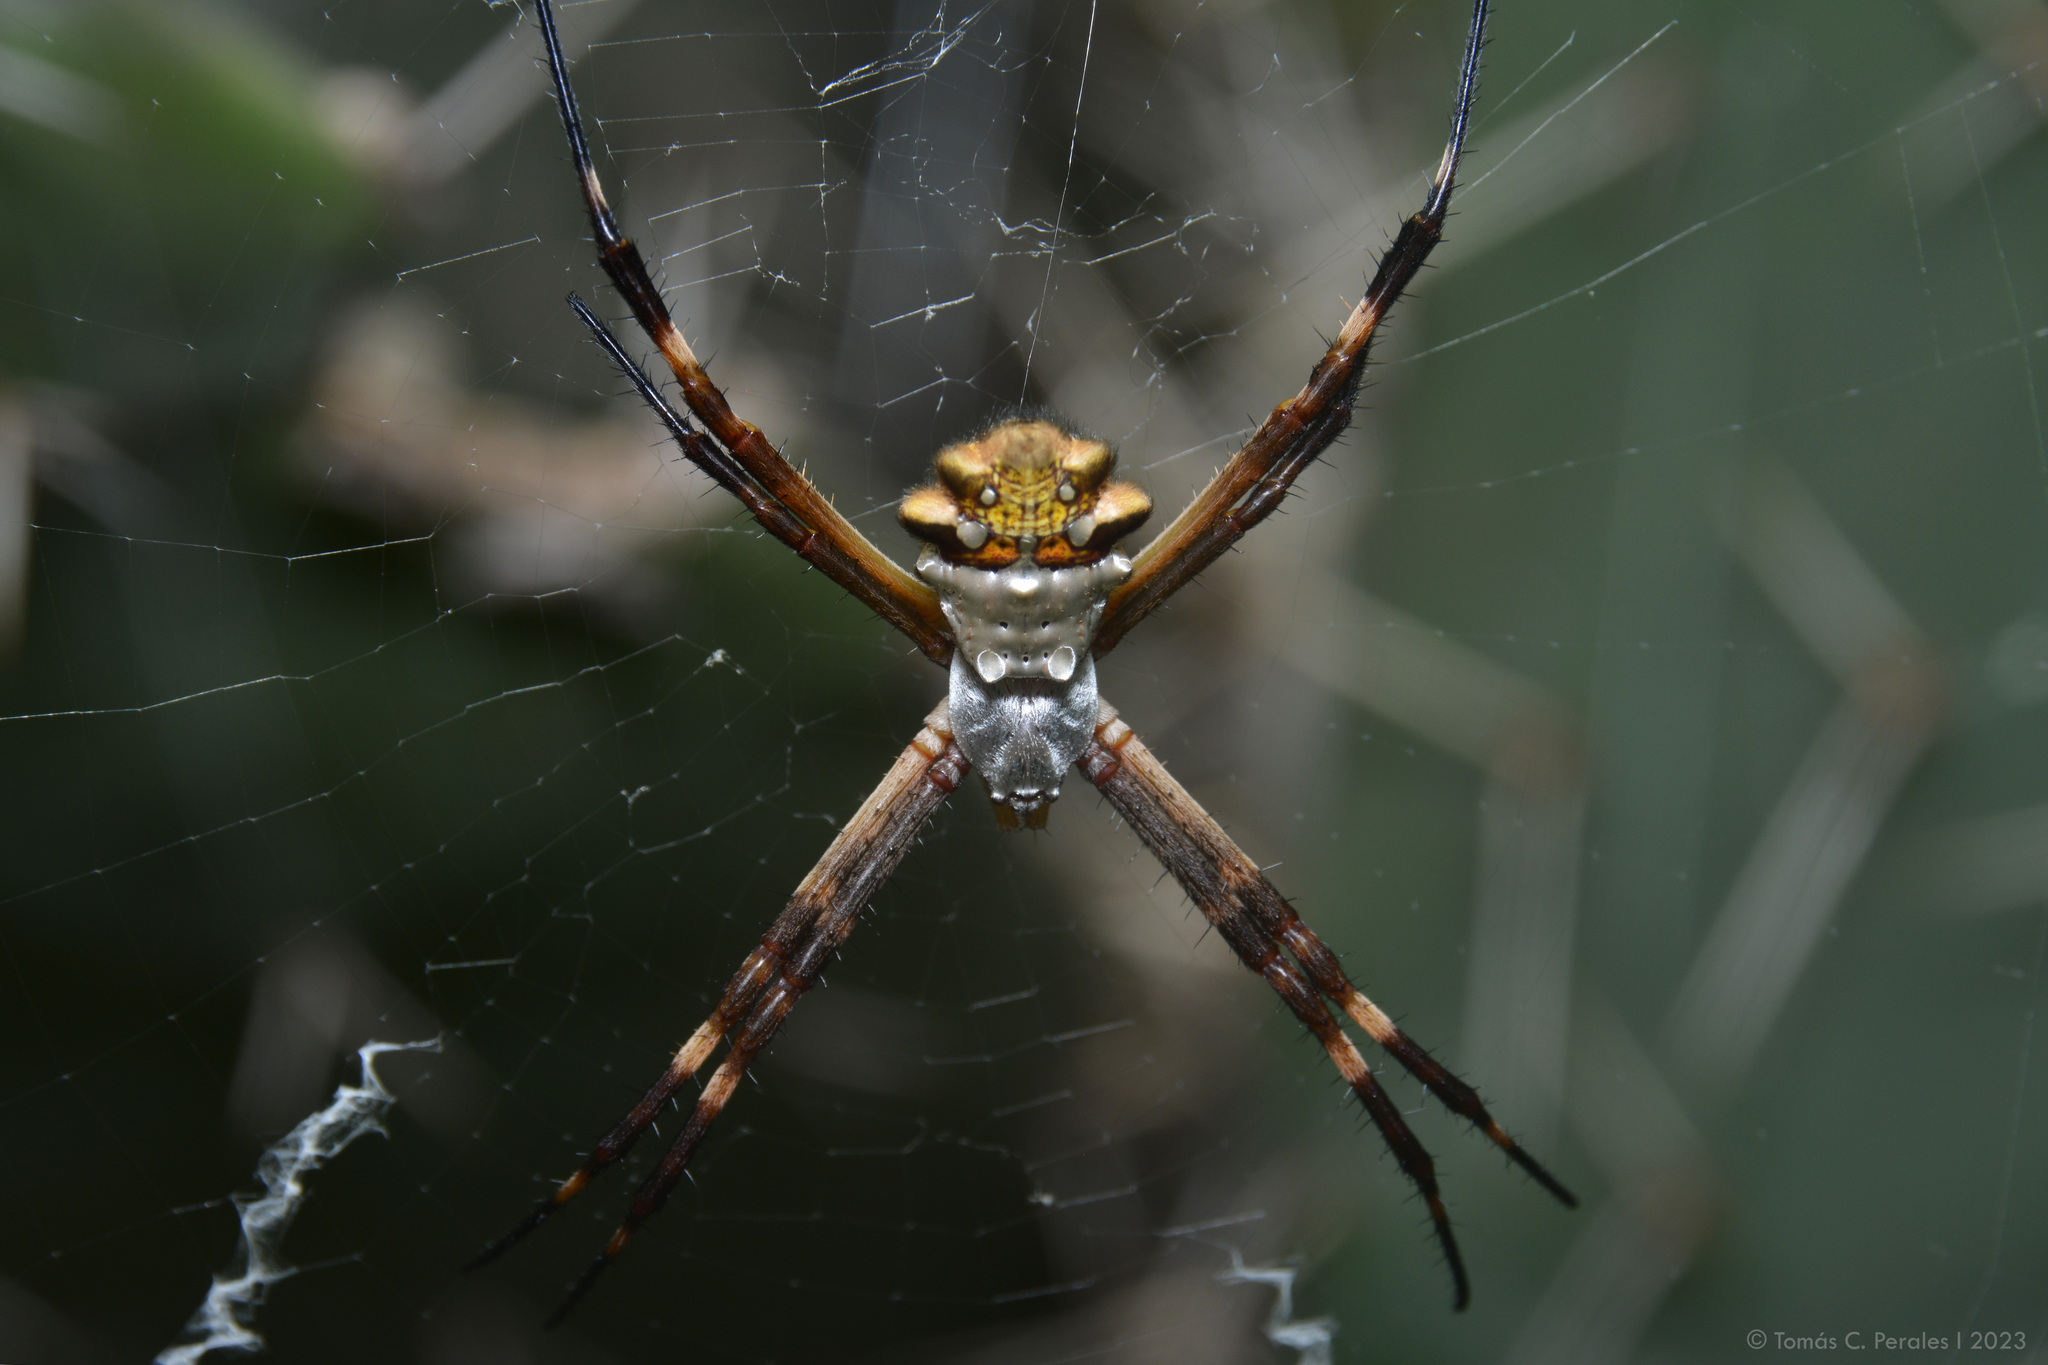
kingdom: Animalia
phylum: Arthropoda
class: Arachnida
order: Araneae
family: Araneidae
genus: Argiope
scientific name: Argiope argentata
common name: Orb weavers
